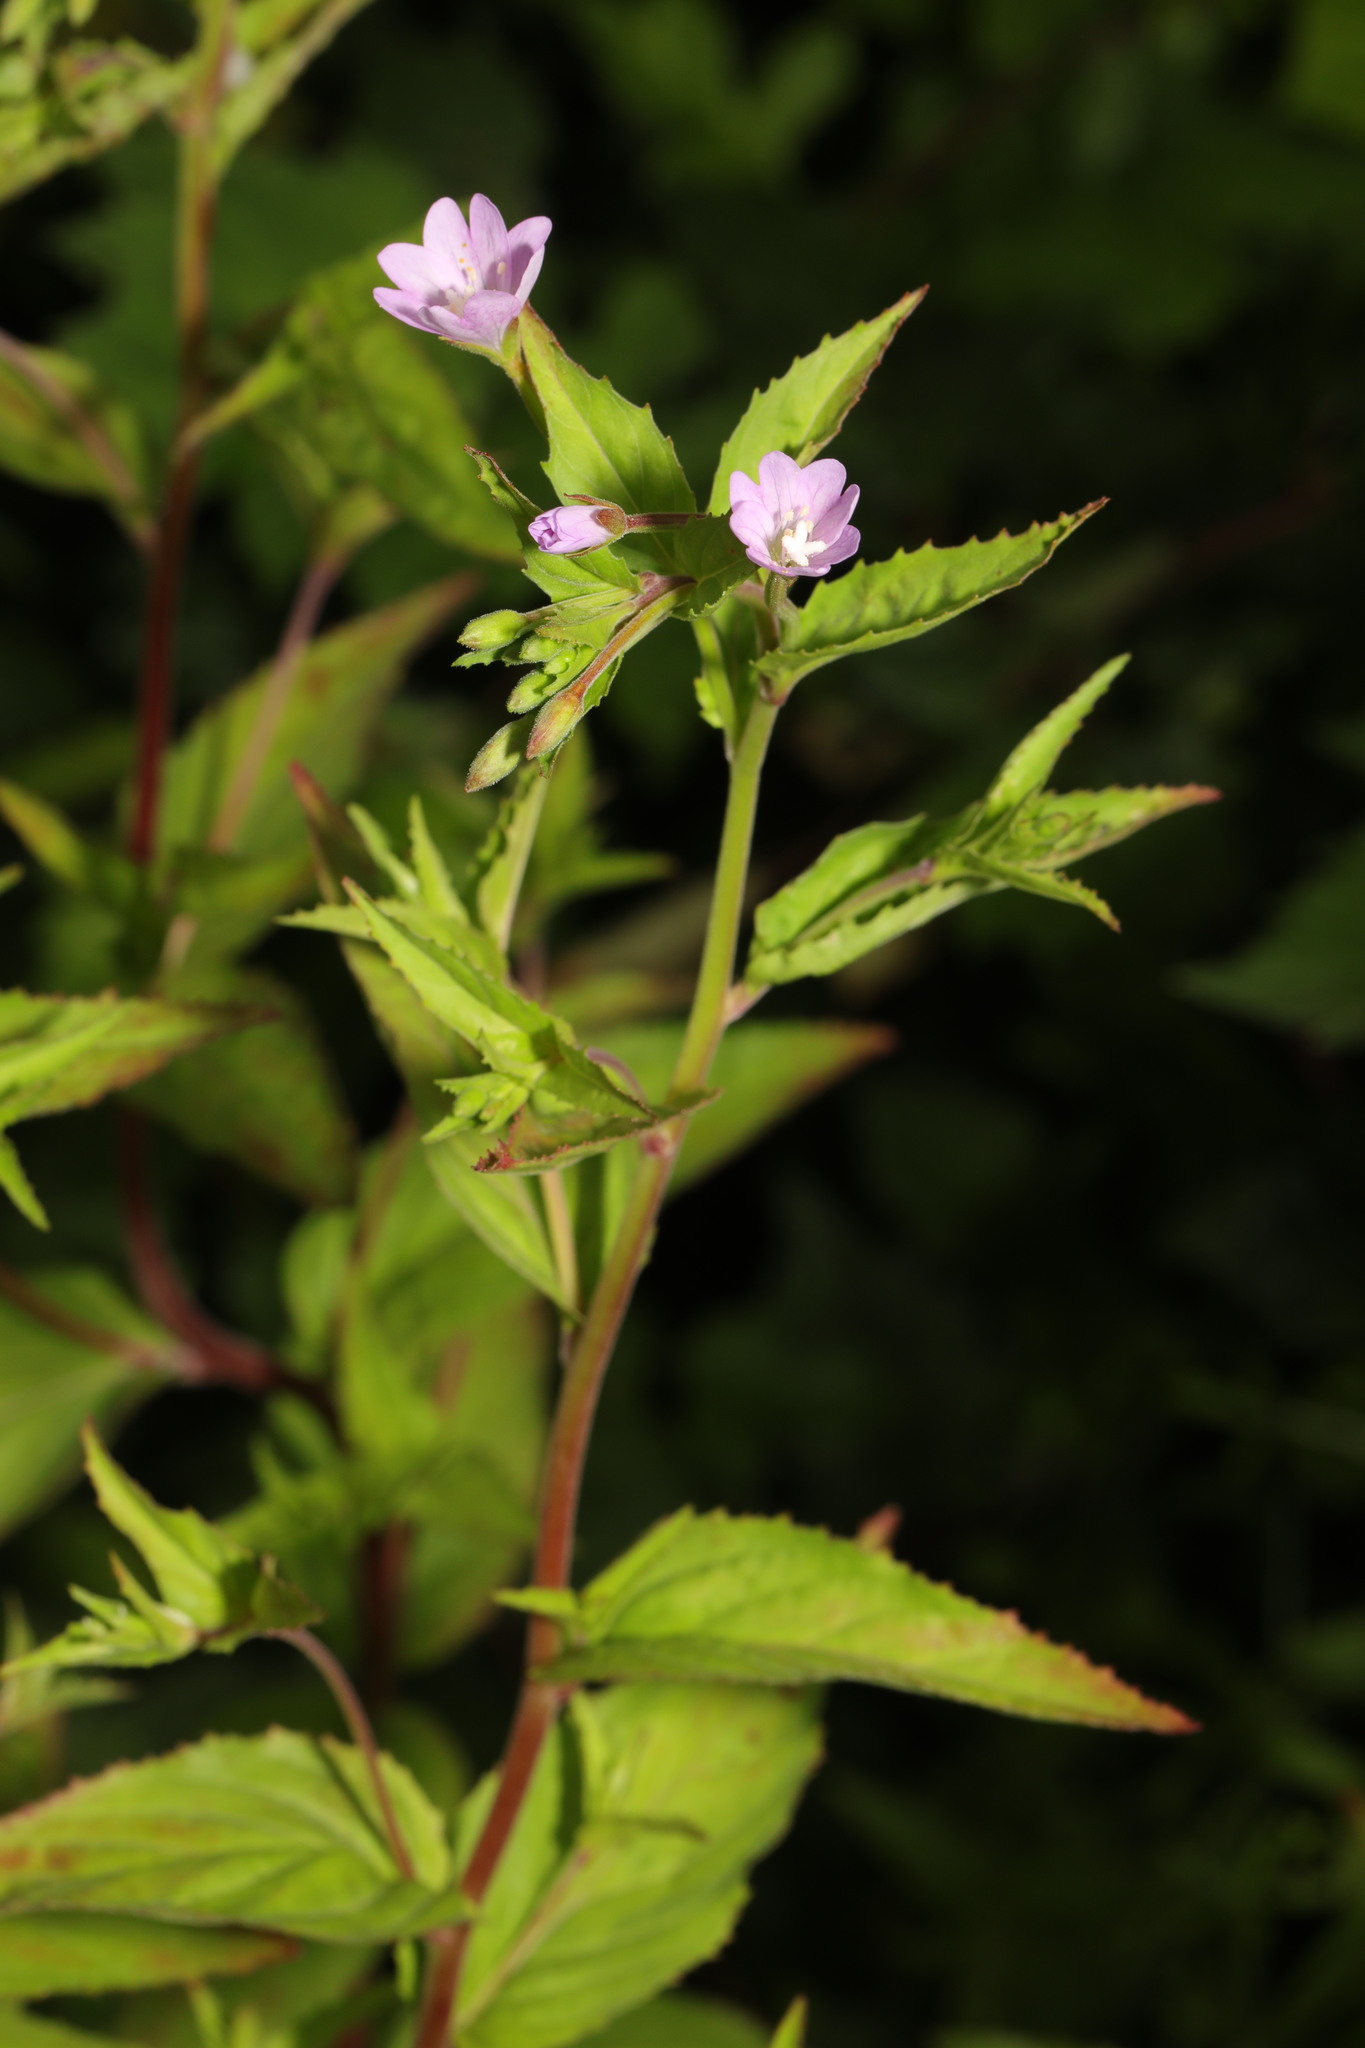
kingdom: Plantae
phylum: Tracheophyta
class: Magnoliopsida
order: Myrtales
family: Onagraceae
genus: Epilobium
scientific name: Epilobium montanum
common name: Broad-leaved willowherb
